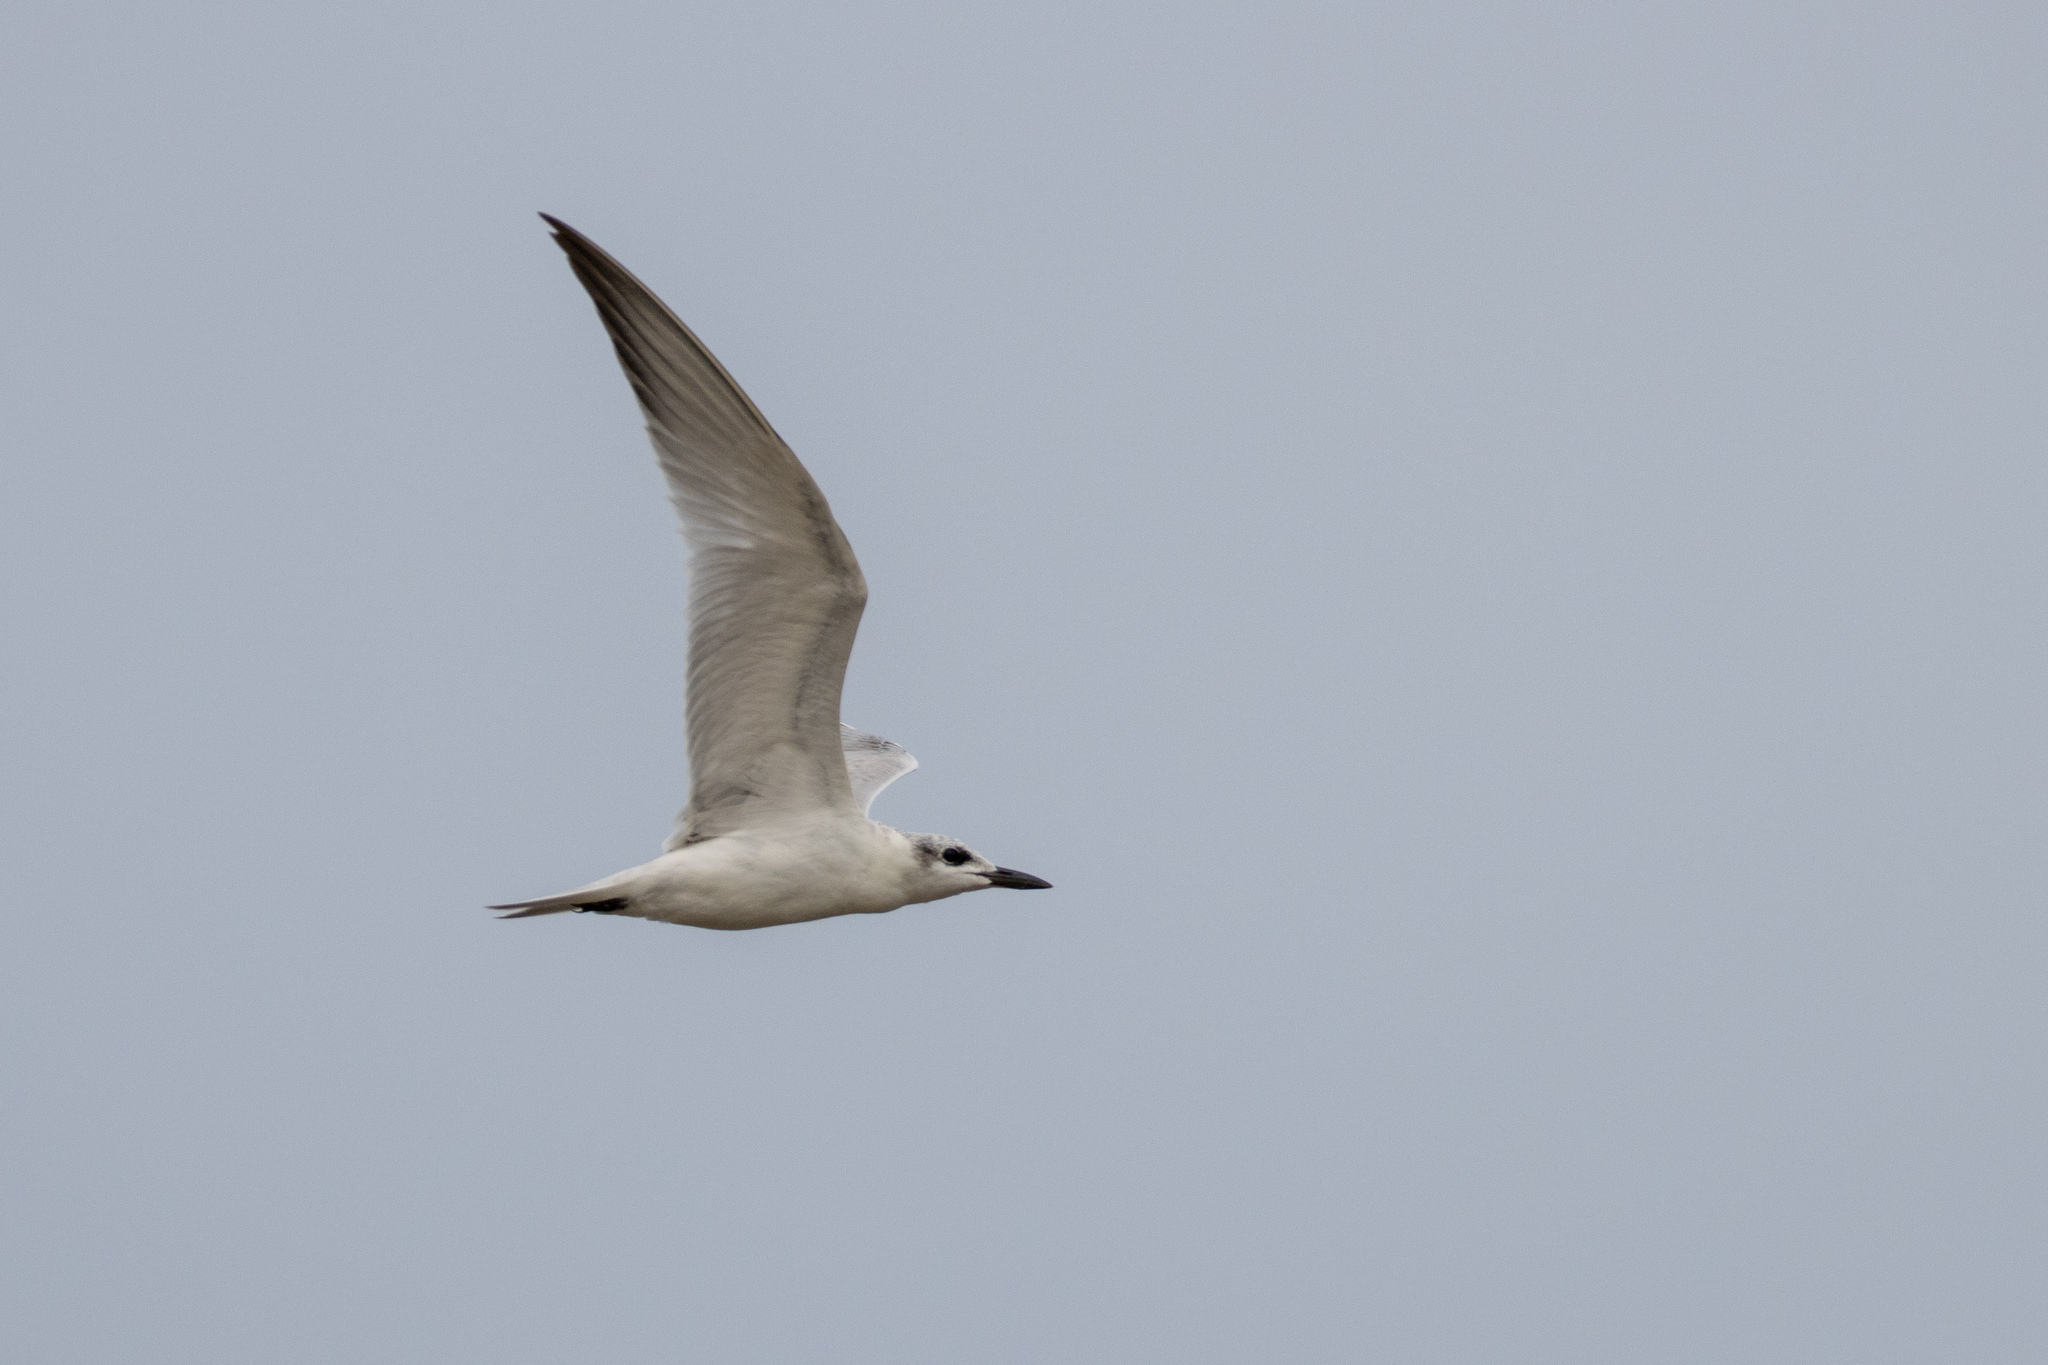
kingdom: Animalia
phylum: Chordata
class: Aves
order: Charadriiformes
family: Laridae
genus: Gelochelidon
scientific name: Gelochelidon nilotica
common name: Gull-billed tern
